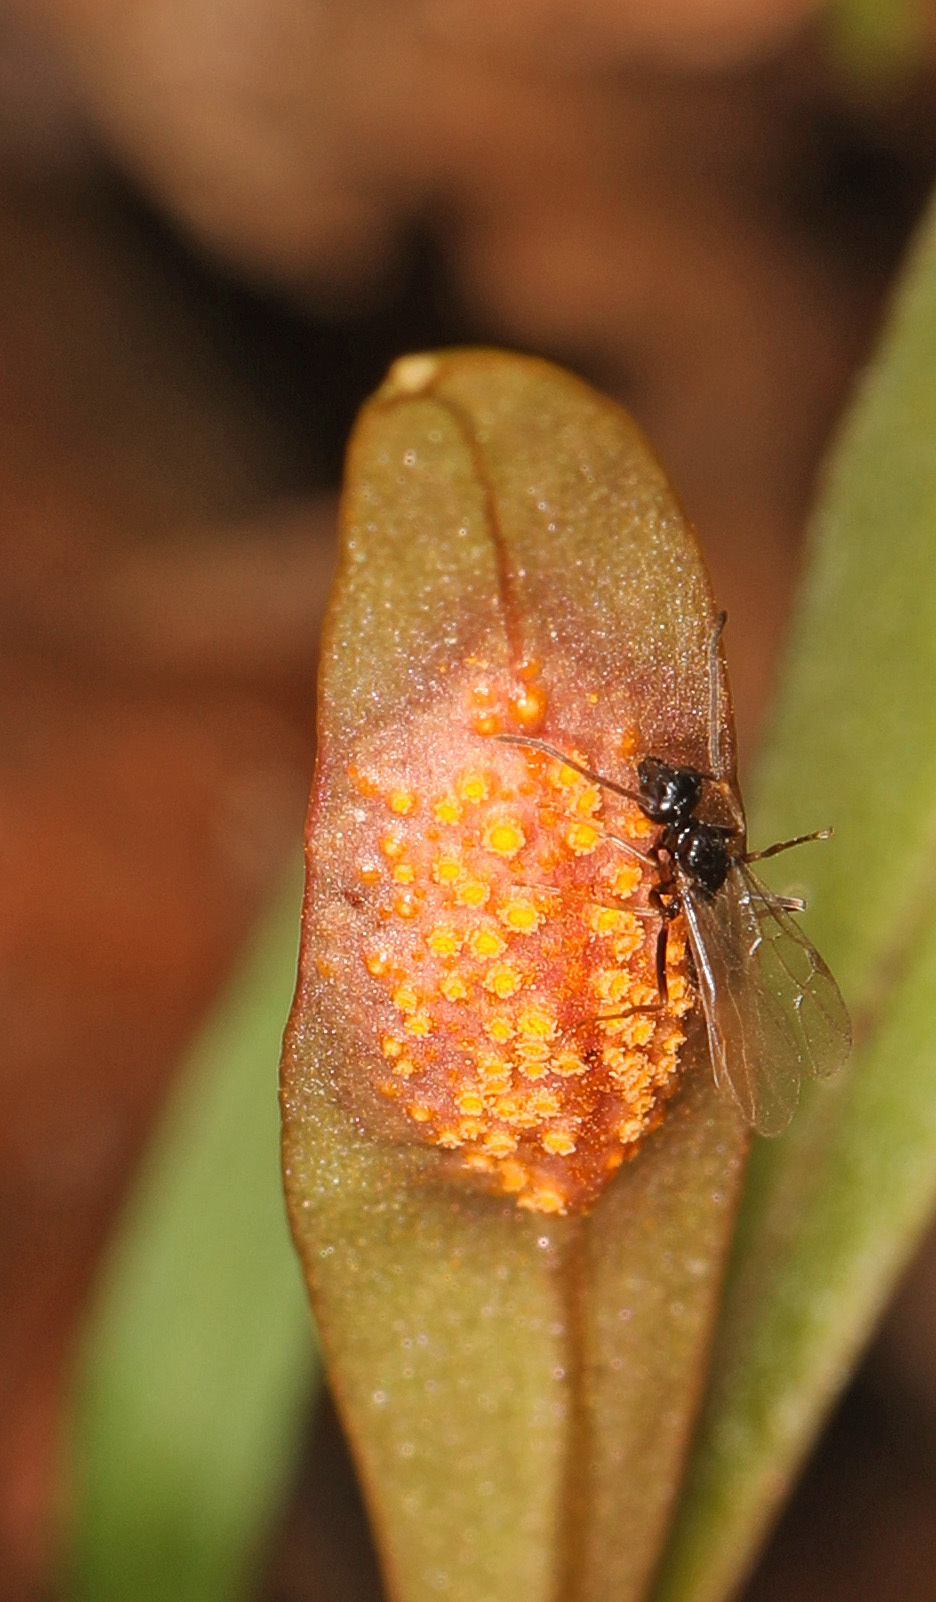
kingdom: Fungi
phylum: Basidiomycota
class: Pucciniomycetes
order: Pucciniales
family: Pucciniaceae
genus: Puccinia
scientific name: Puccinia mariae-wilsoniae
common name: Spring beauty rust
